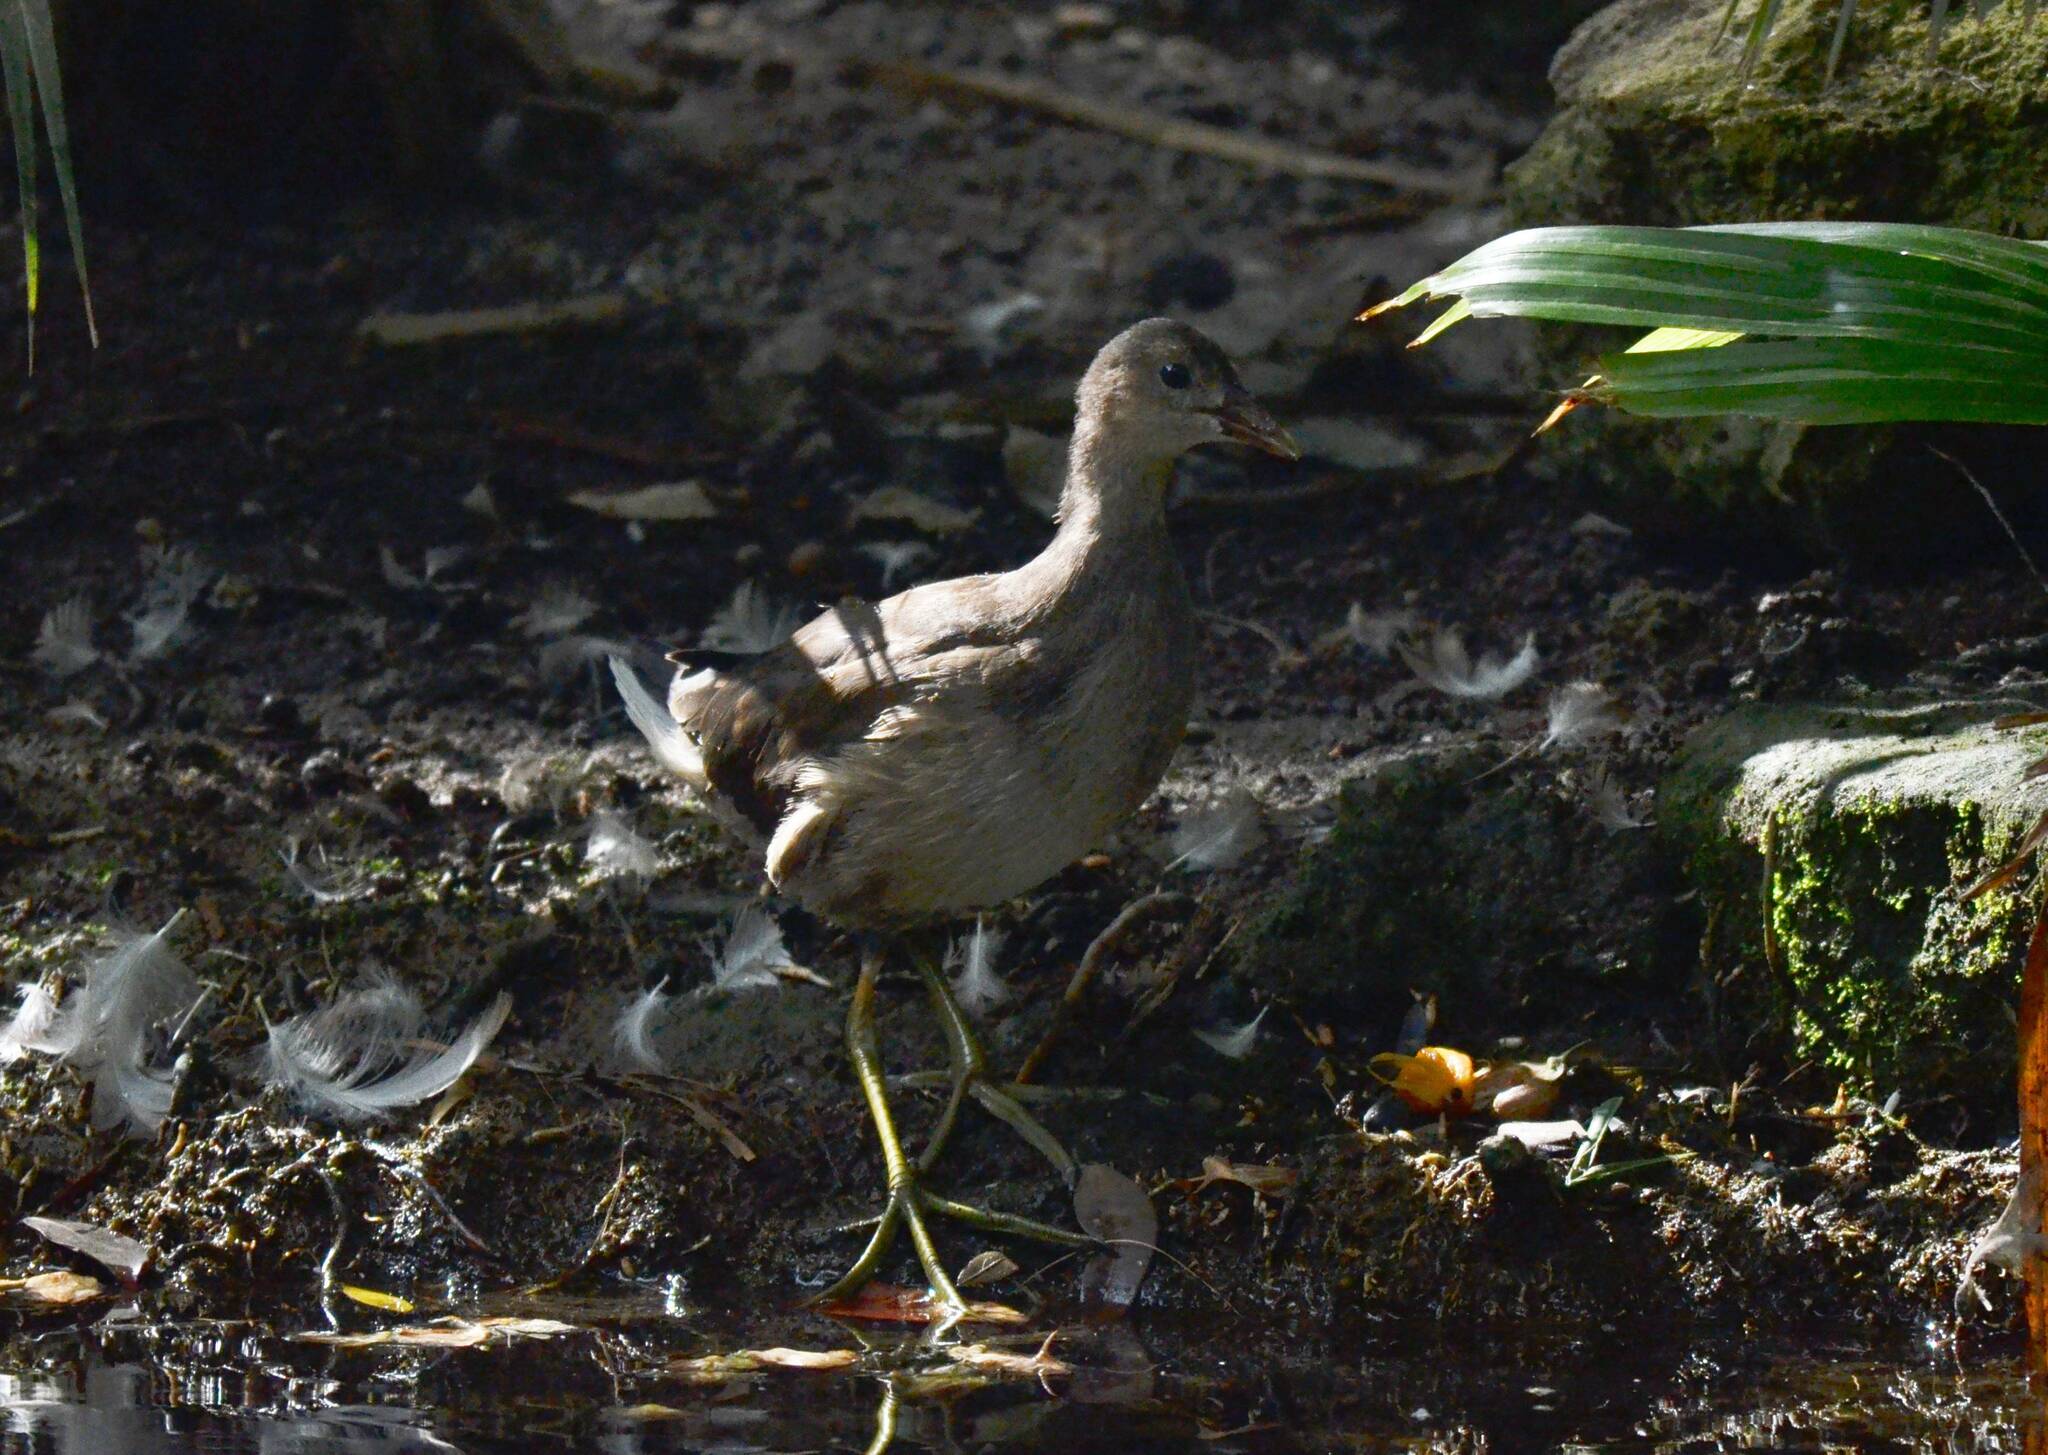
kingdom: Animalia
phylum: Chordata
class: Aves
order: Gruiformes
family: Rallidae
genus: Gallinula
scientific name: Gallinula chloropus
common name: Common moorhen
